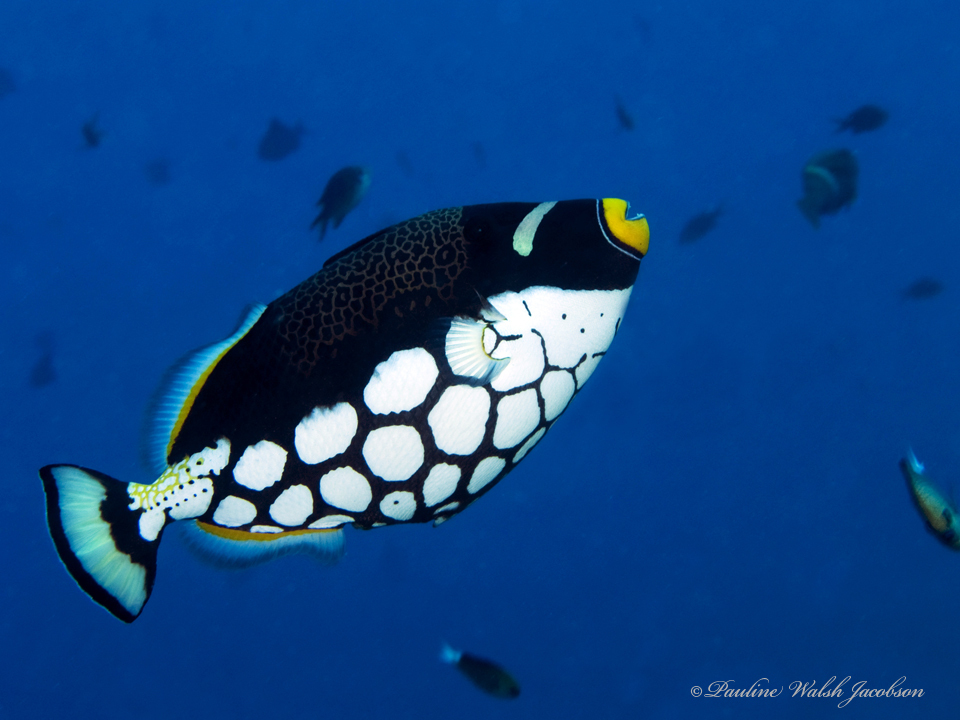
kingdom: Animalia
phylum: Chordata
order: Tetraodontiformes
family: Balistidae
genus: Balistoides
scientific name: Balistoides conspicillum
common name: Clown triggerfish
